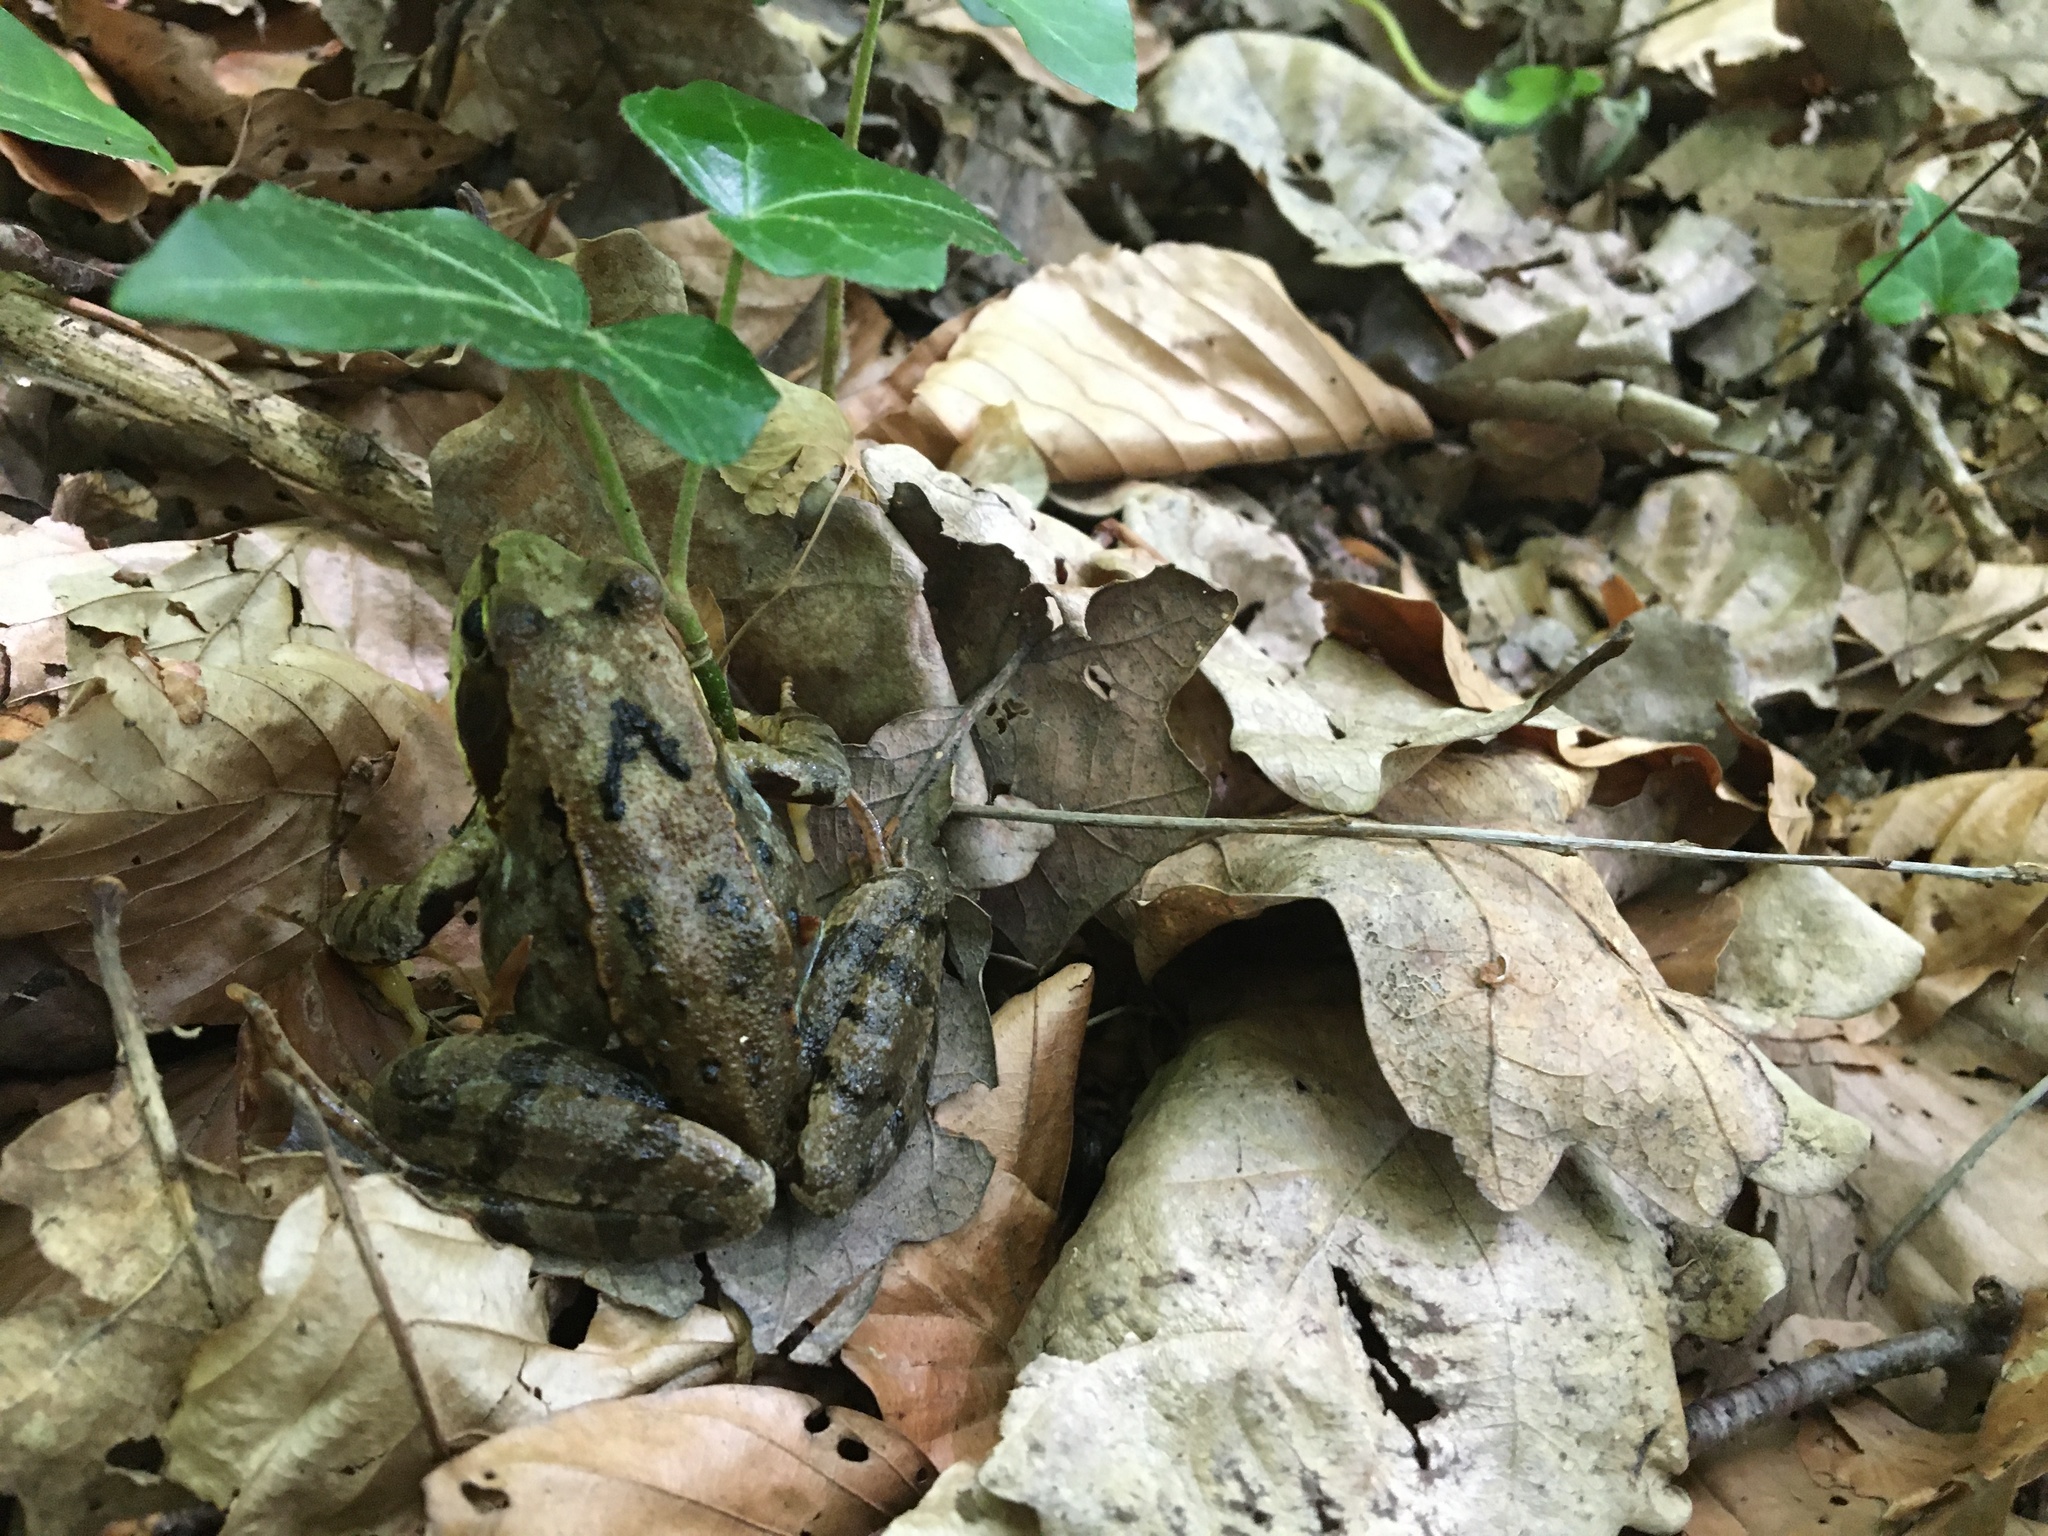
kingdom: Animalia
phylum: Chordata
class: Amphibia
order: Anura
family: Ranidae
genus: Rana
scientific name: Rana temporaria
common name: Common frog
